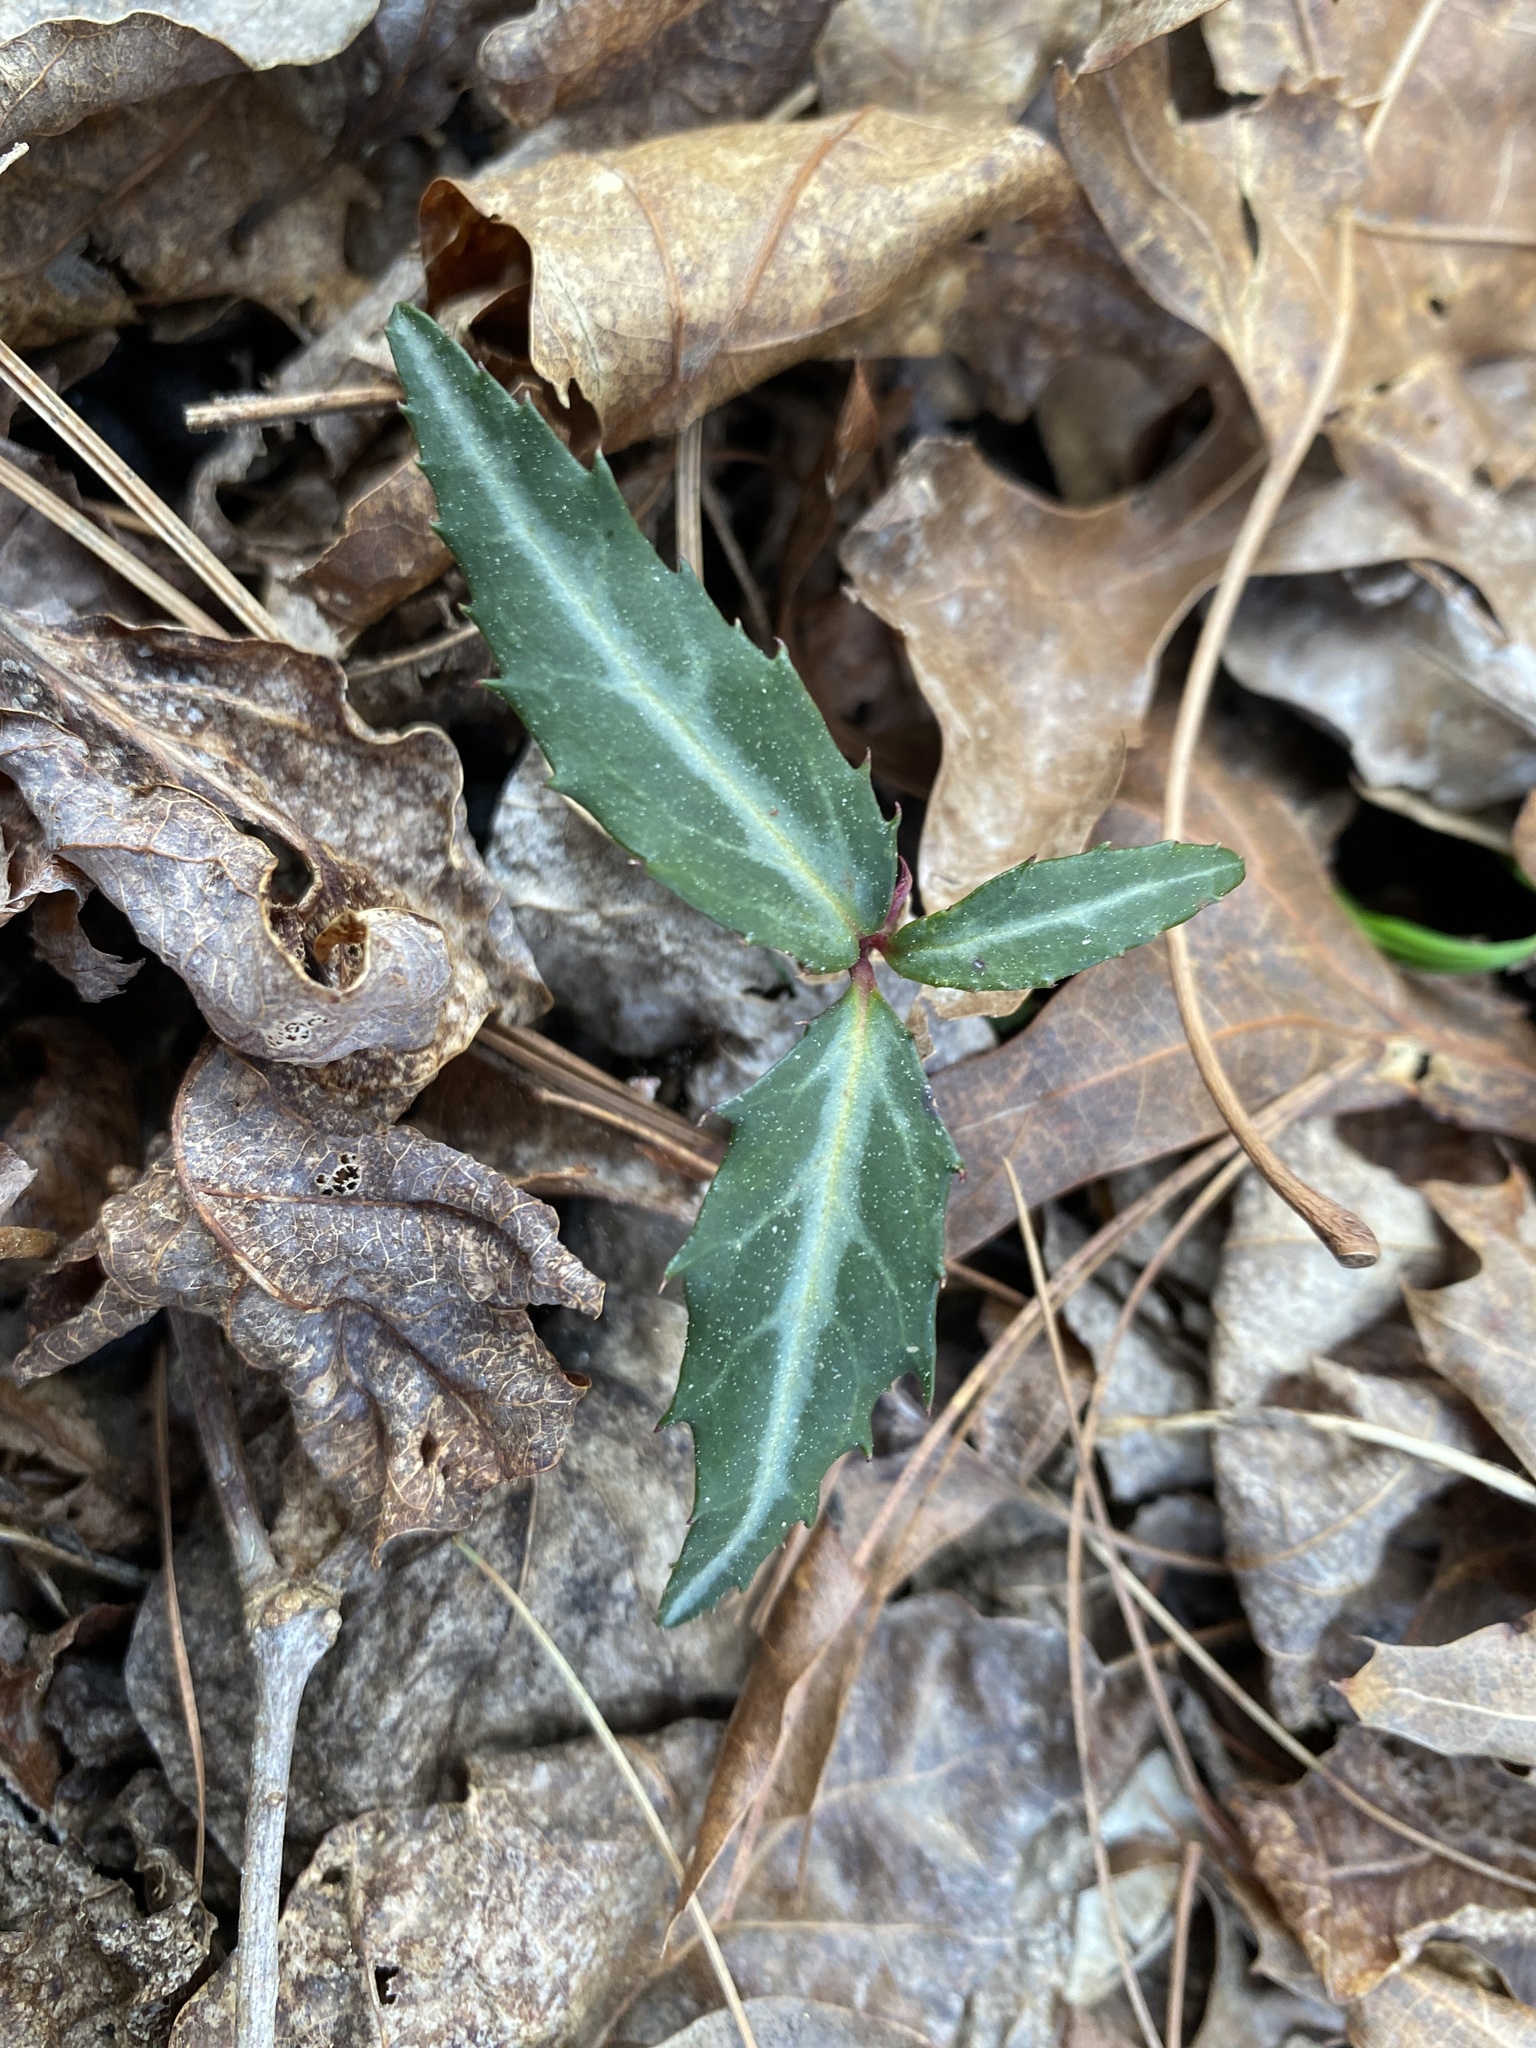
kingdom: Plantae
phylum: Tracheophyta
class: Magnoliopsida
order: Ericales
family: Ericaceae
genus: Chimaphila
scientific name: Chimaphila maculata
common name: Spotted pipsissewa
